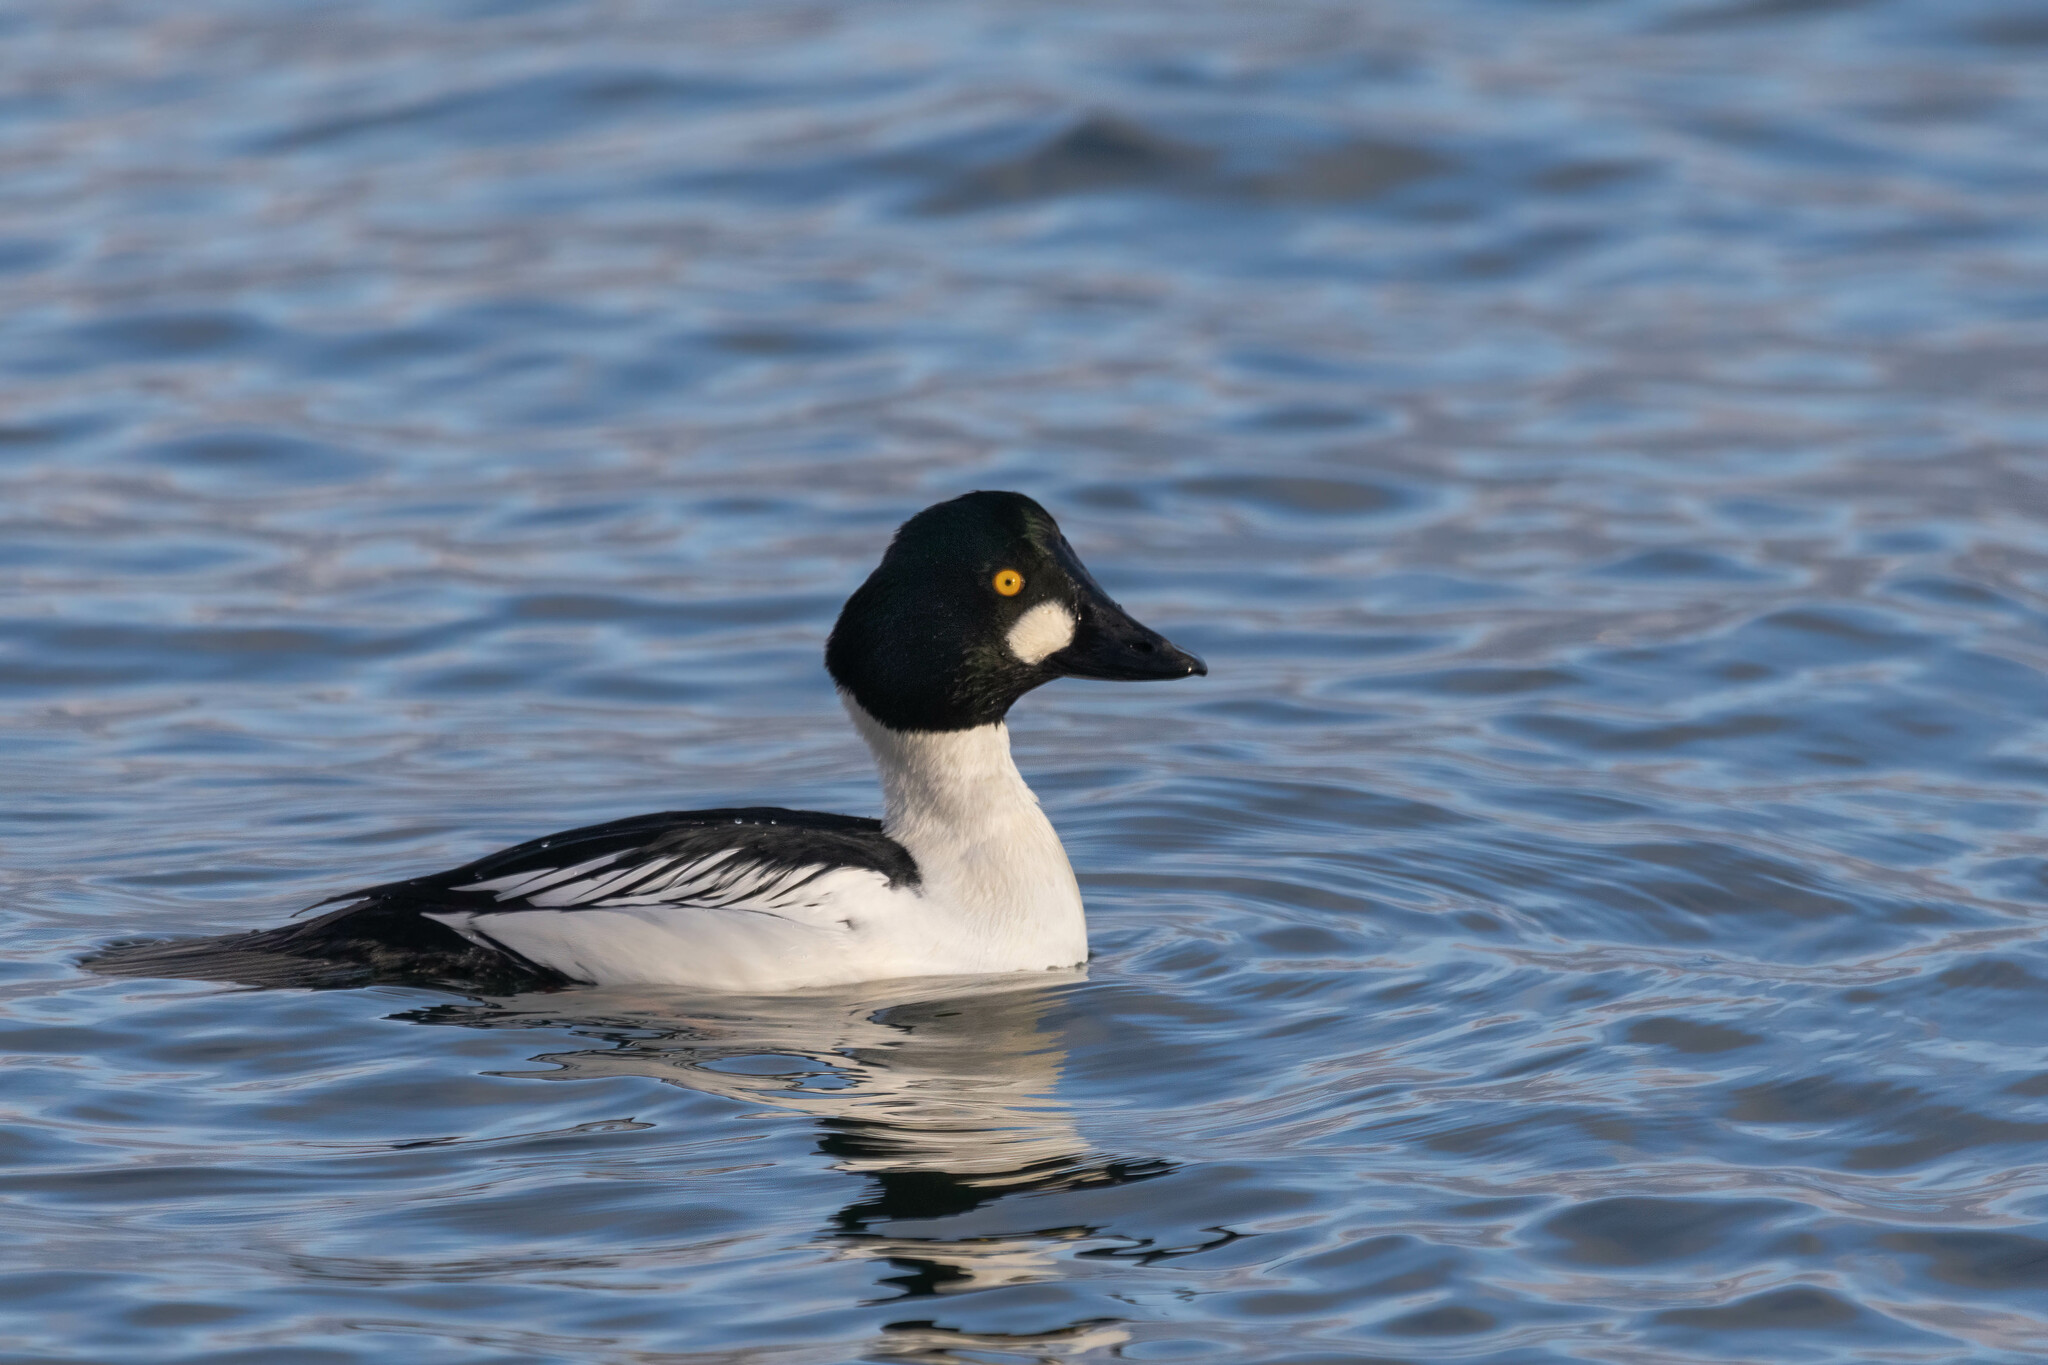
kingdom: Animalia
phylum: Chordata
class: Aves
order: Anseriformes
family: Anatidae
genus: Bucephala
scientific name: Bucephala clangula
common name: Common goldeneye
